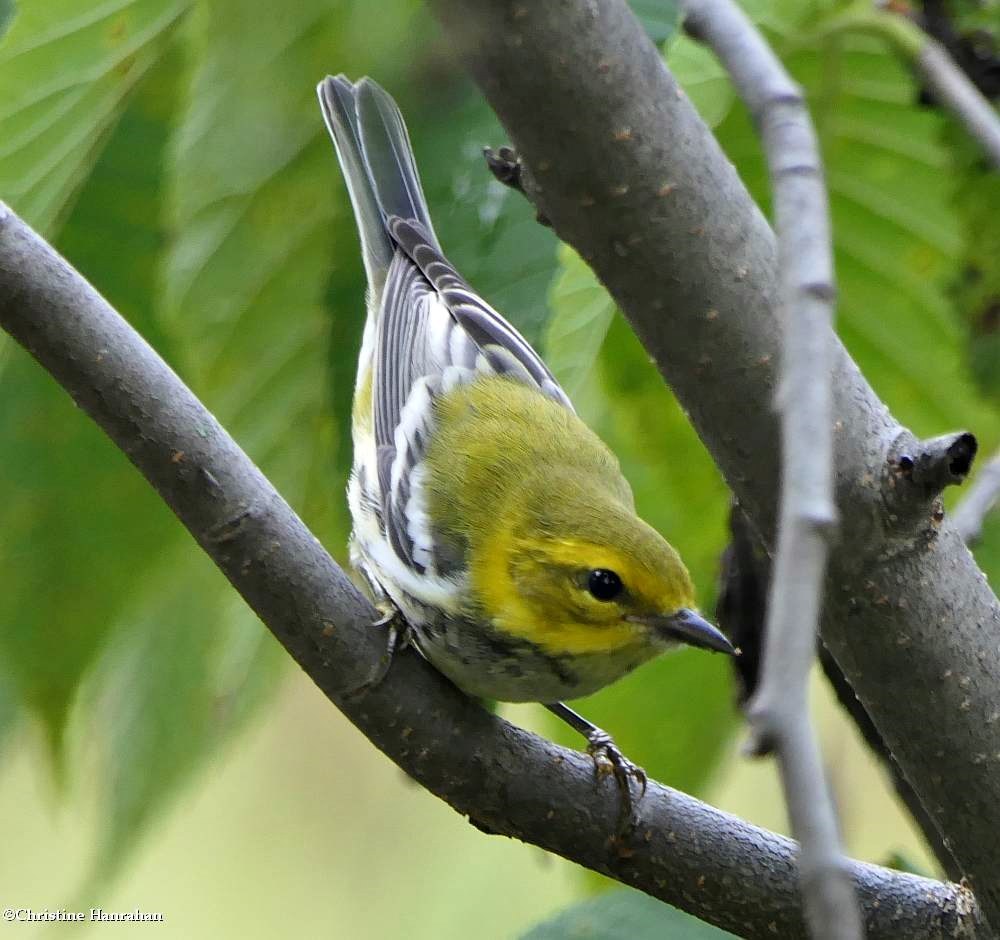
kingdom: Animalia
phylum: Chordata
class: Aves
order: Passeriformes
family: Parulidae
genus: Setophaga
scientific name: Setophaga virens
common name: Black-throated green warbler
